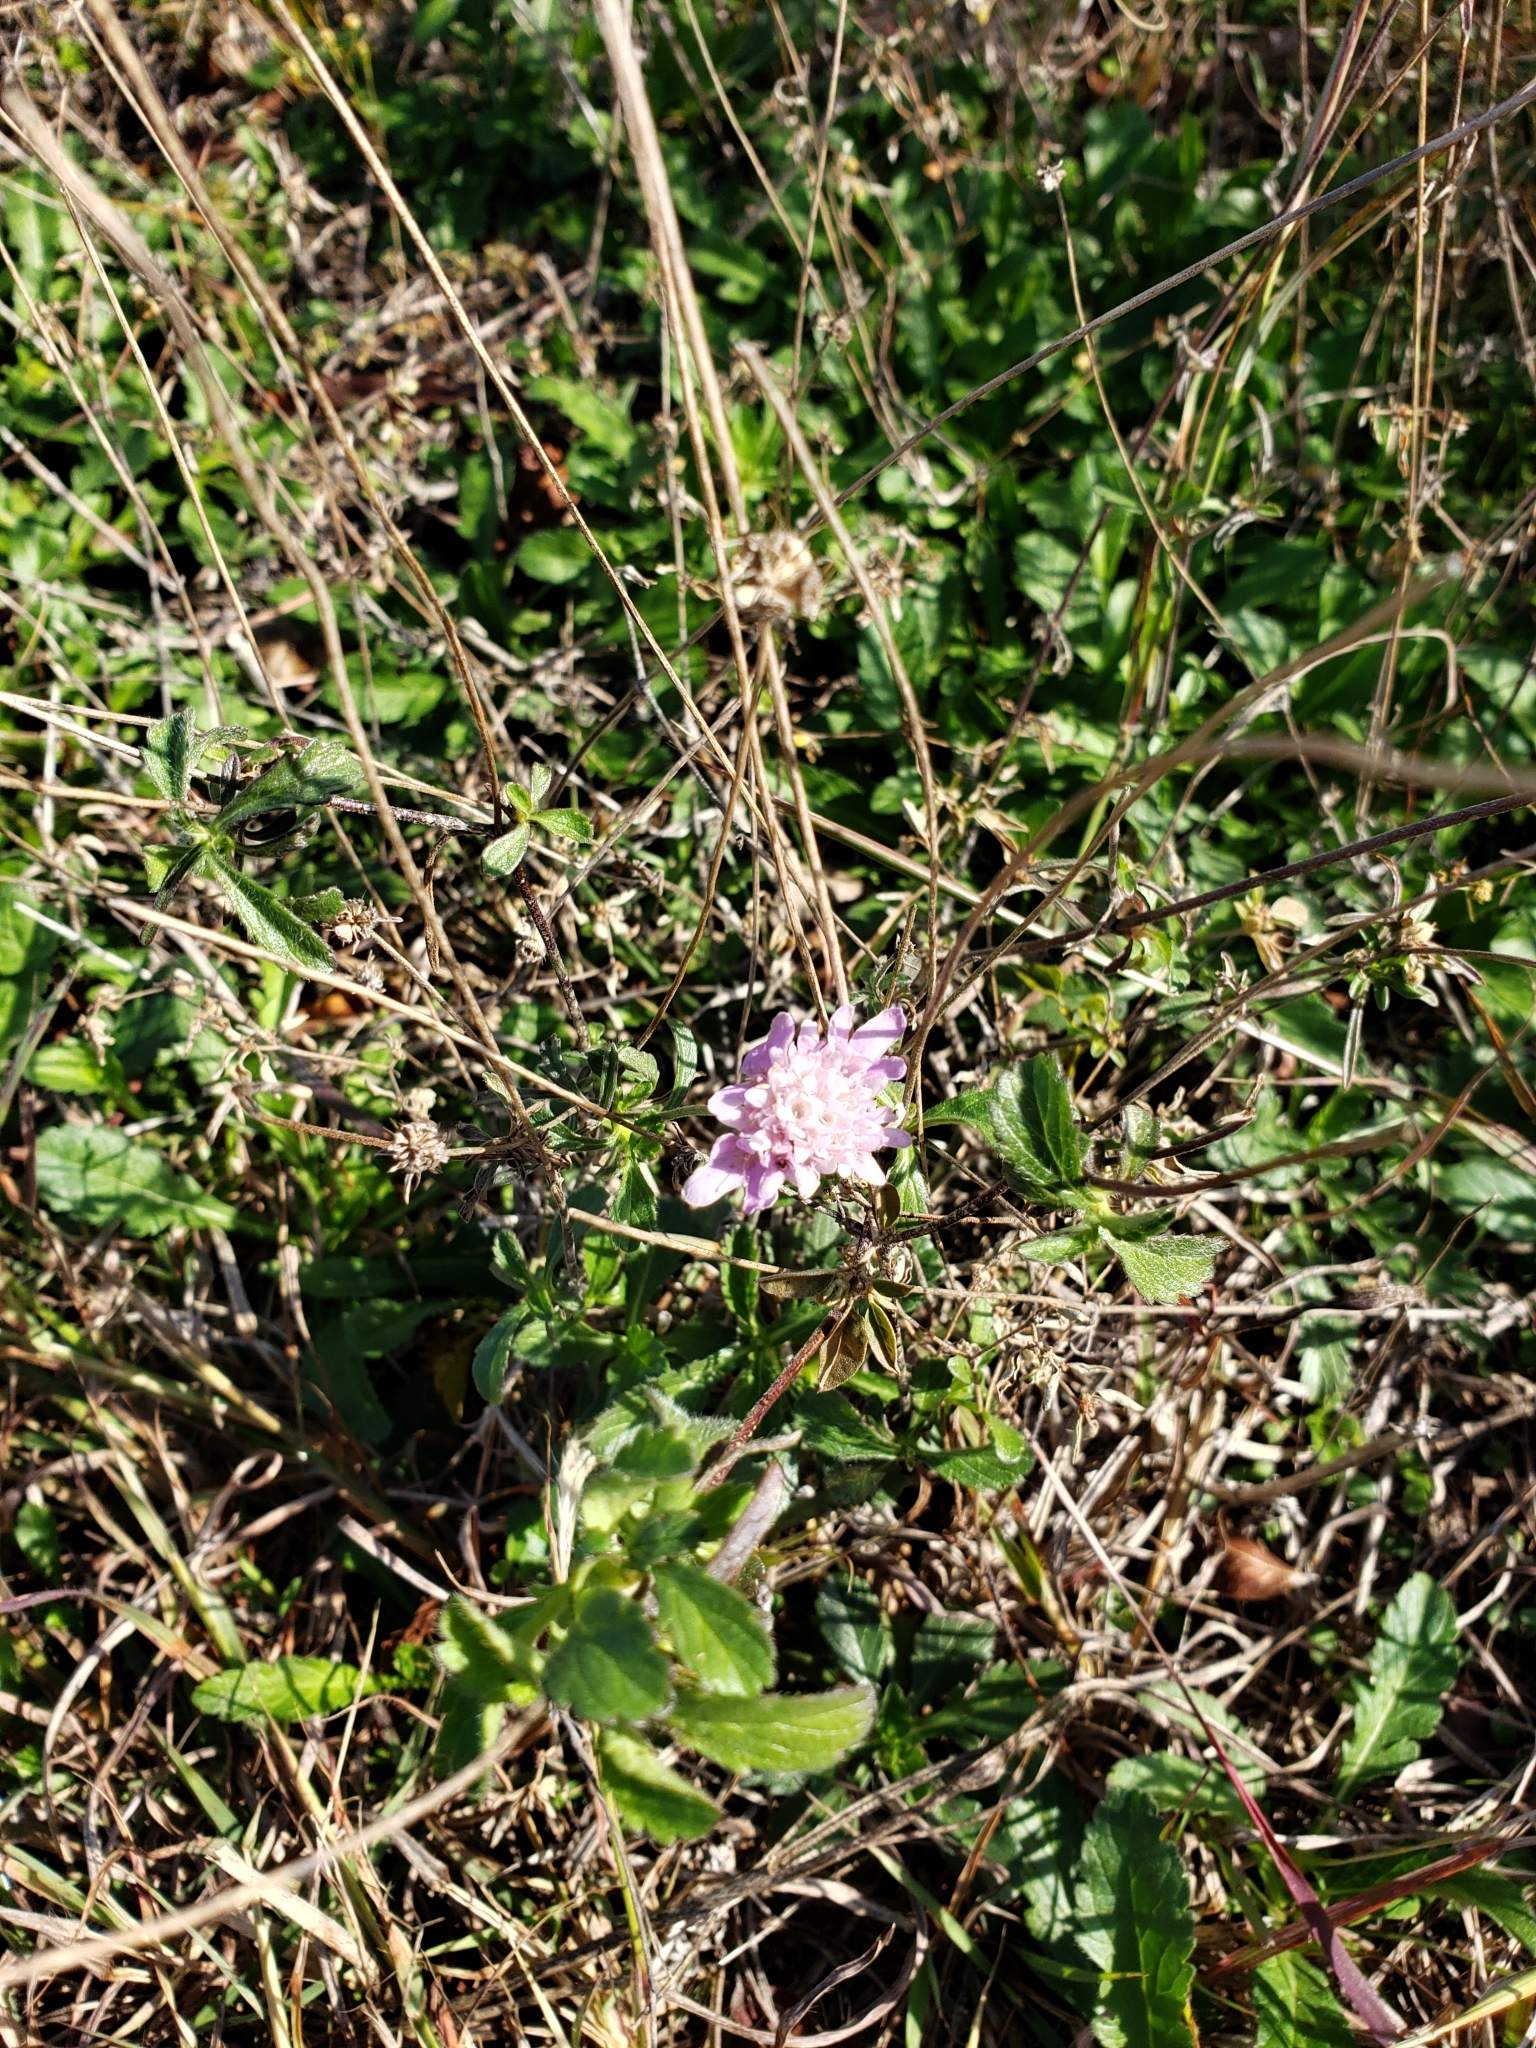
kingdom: Plantae
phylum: Tracheophyta
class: Magnoliopsida
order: Dipsacales
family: Caprifoliaceae
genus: Sixalix
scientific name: Sixalix atropurpurea
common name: Sweet scabious
